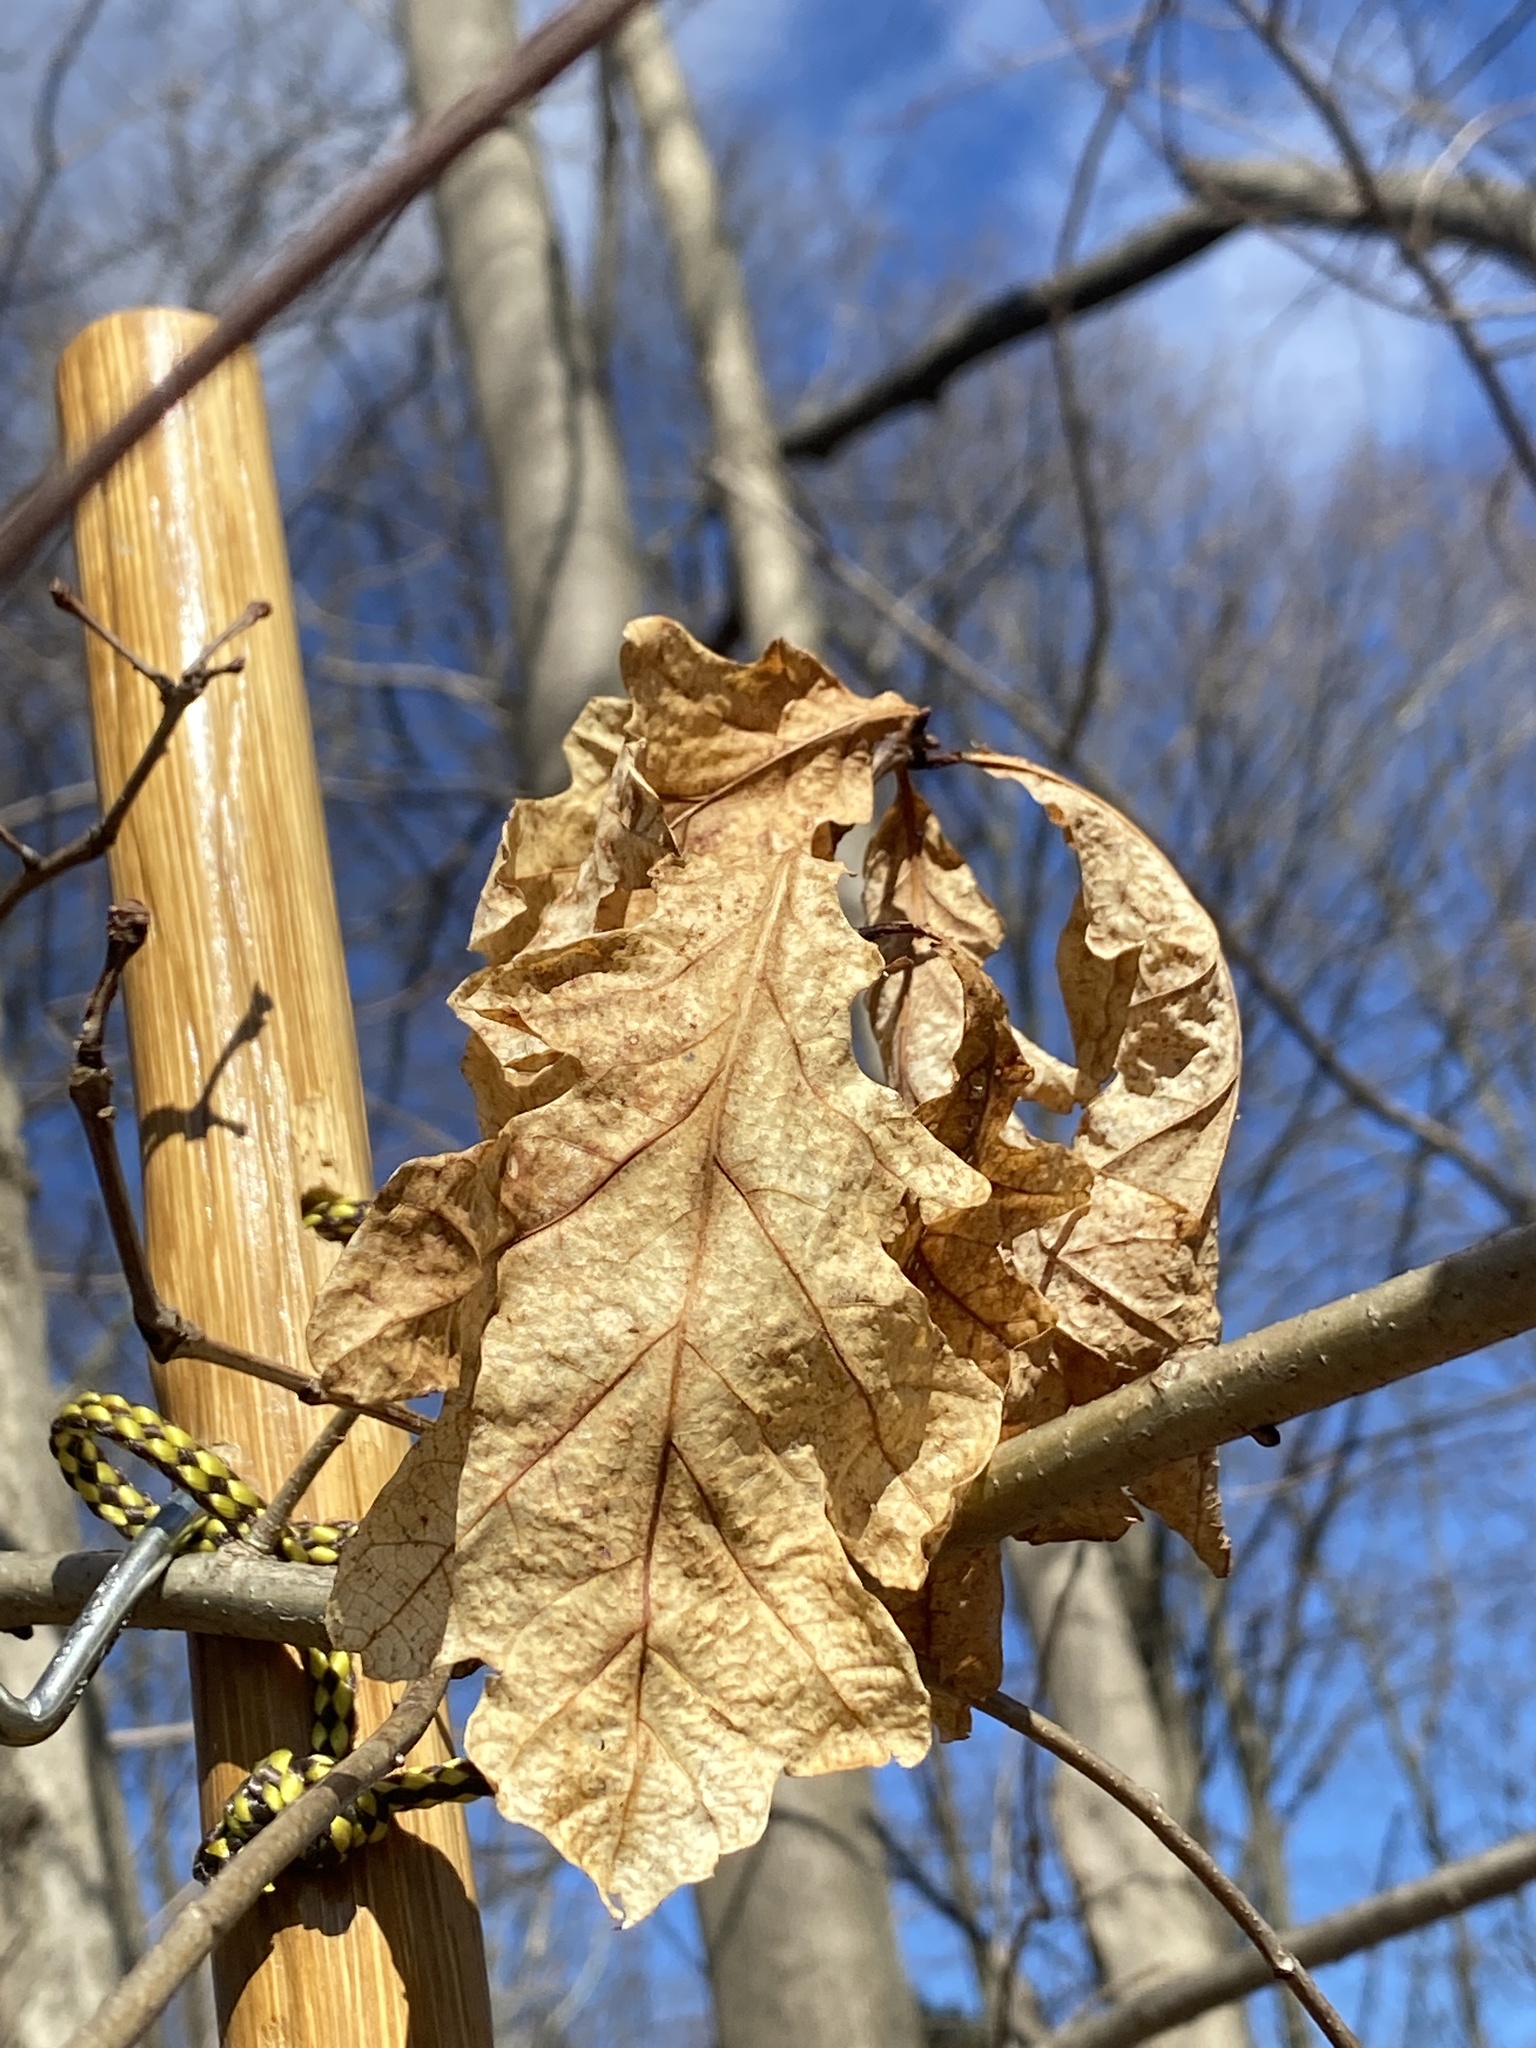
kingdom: Plantae
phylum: Tracheophyta
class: Magnoliopsida
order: Fagales
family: Fagaceae
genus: Quercus
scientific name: Quercus alba
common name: White oak
